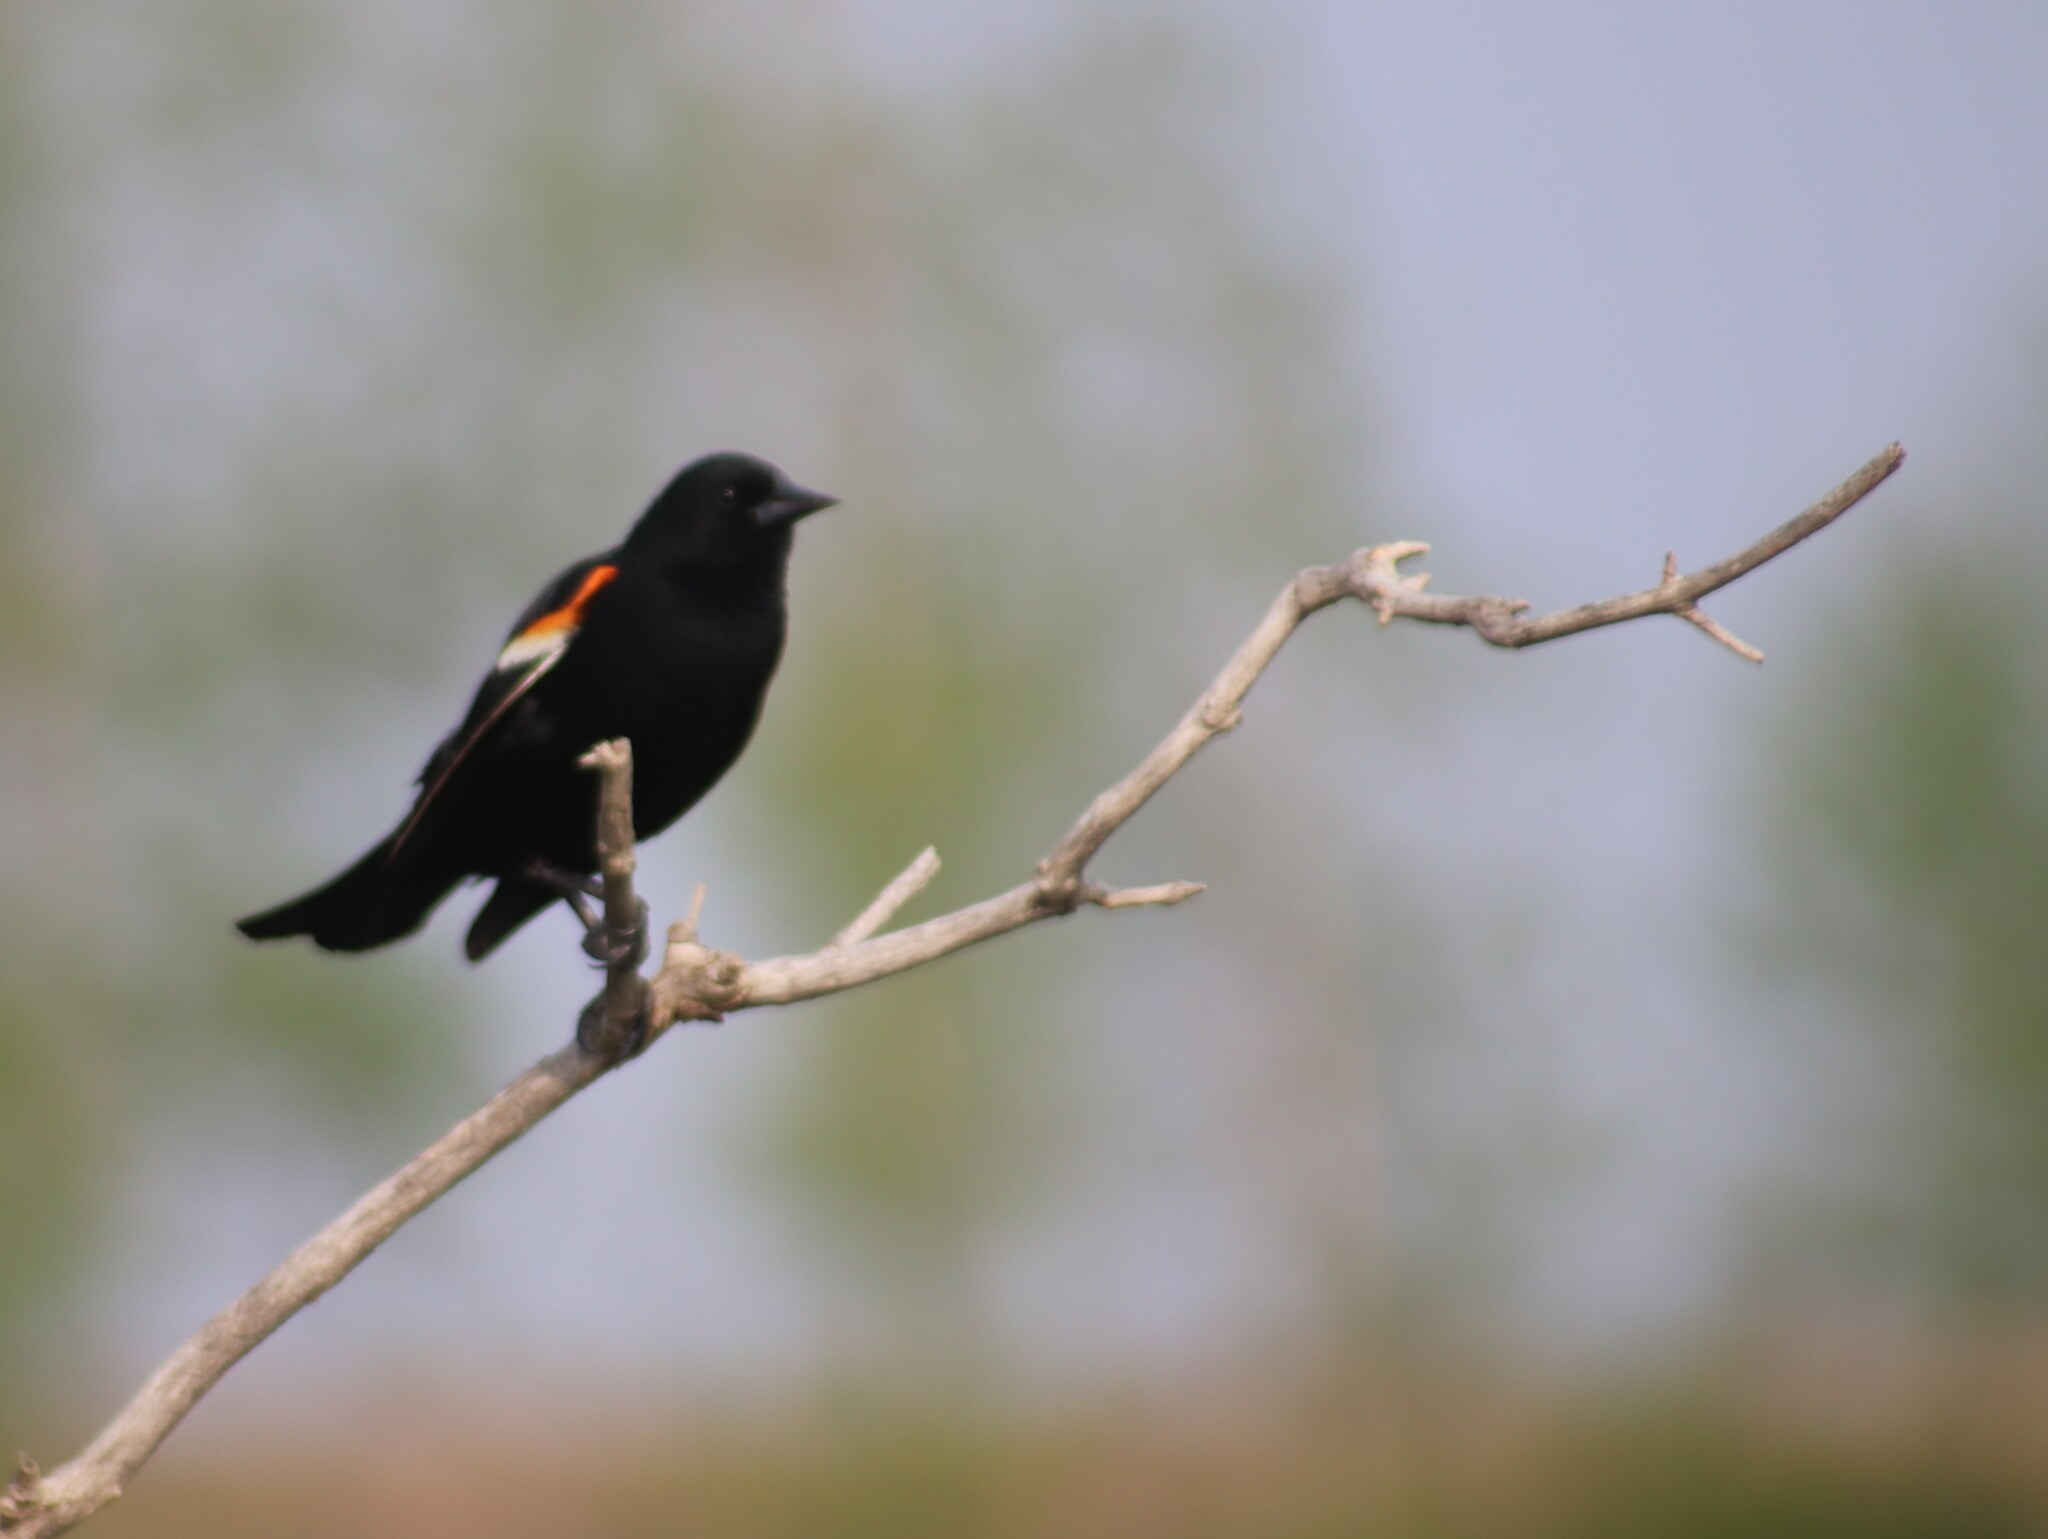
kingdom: Animalia
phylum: Chordata
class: Aves
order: Passeriformes
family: Icteridae
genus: Agelaius
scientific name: Agelaius phoeniceus
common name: Red-winged blackbird
